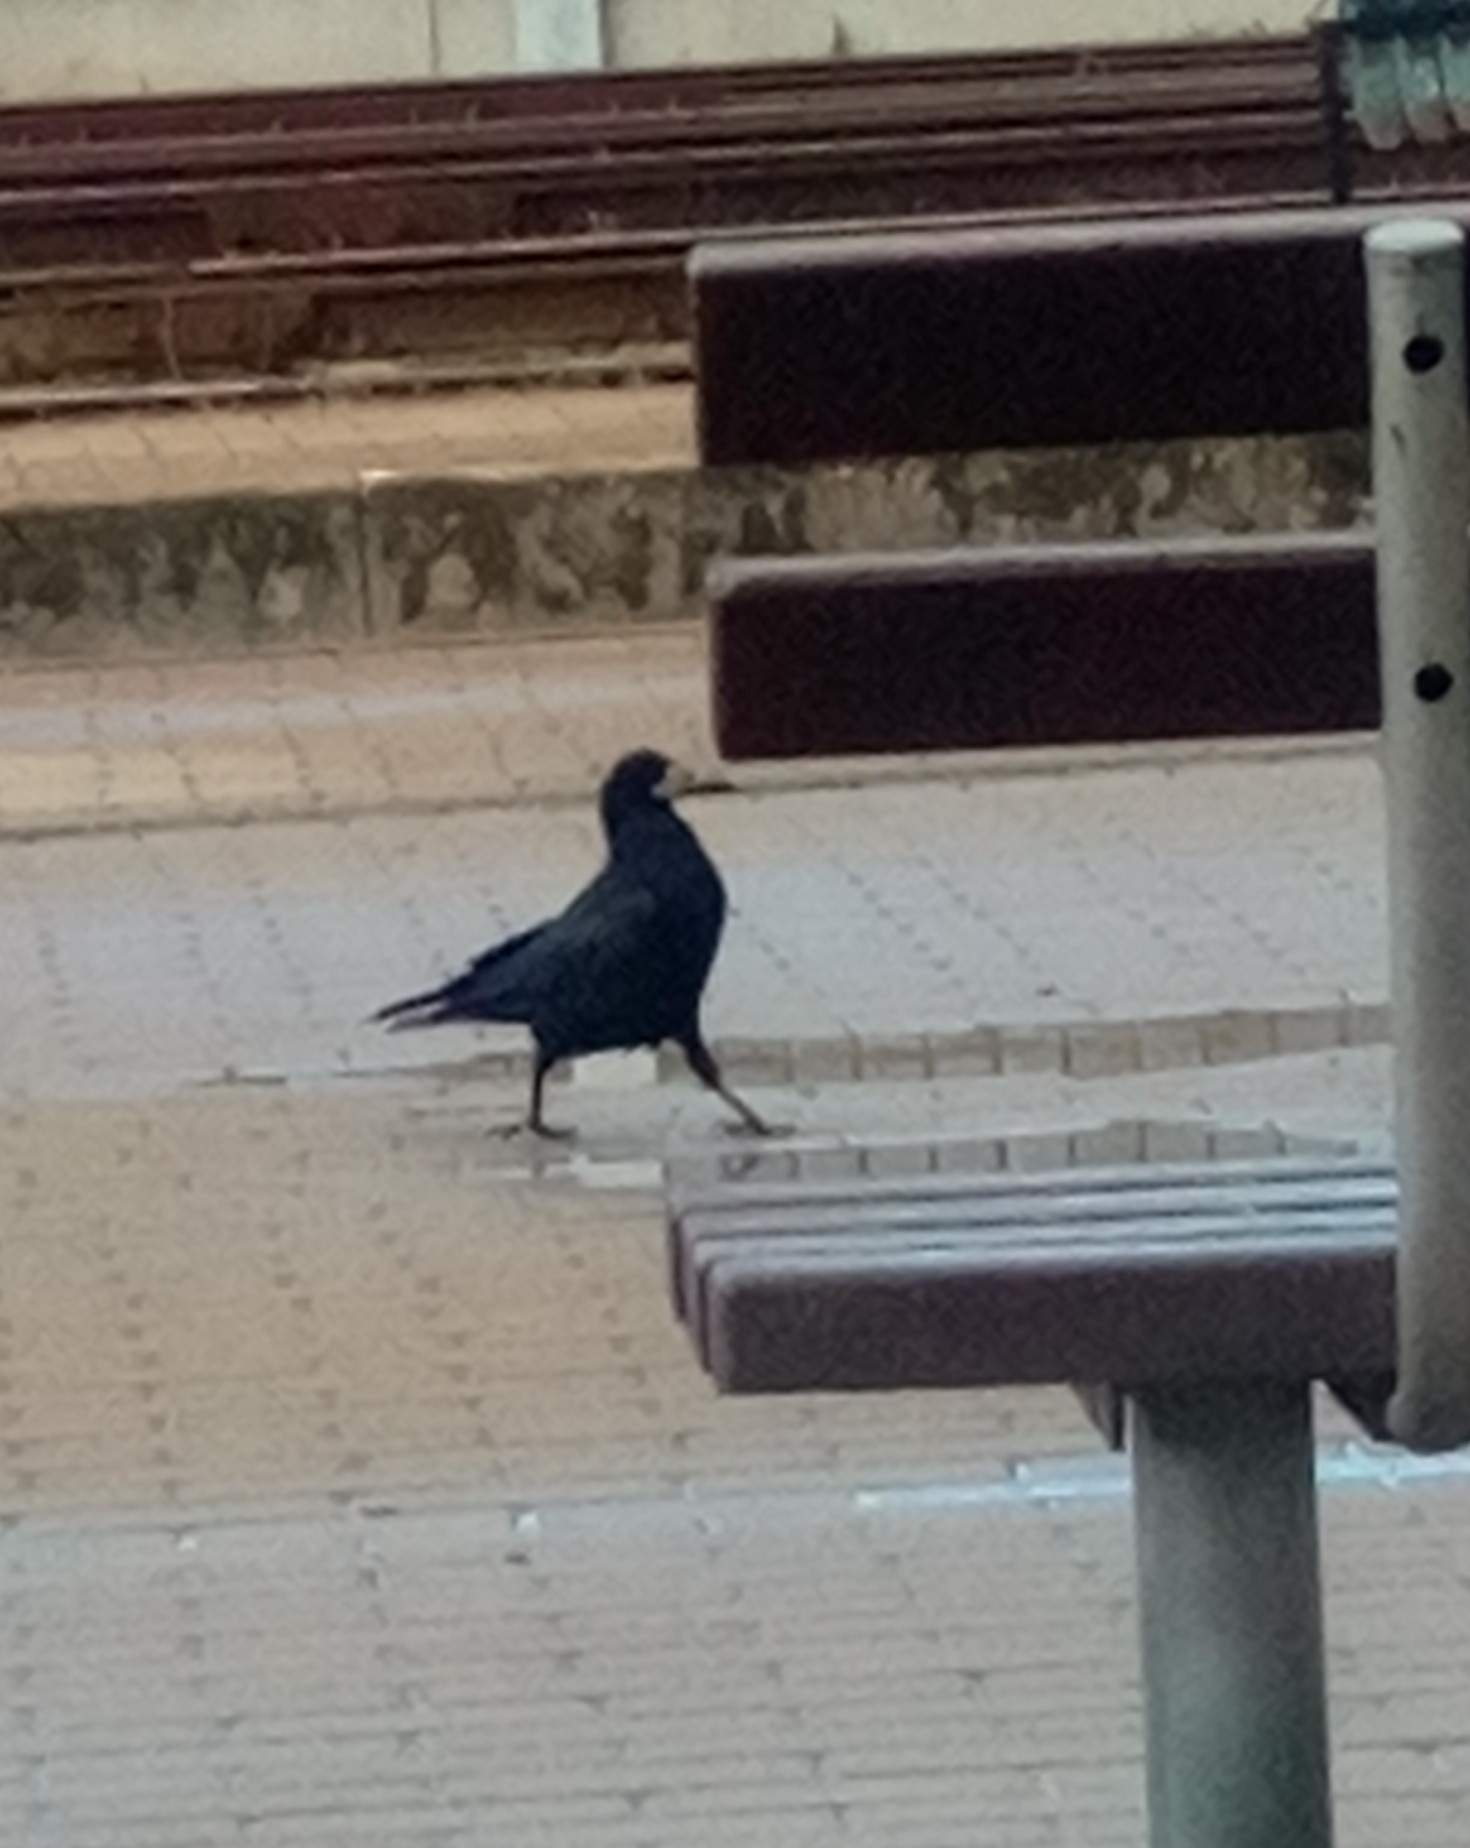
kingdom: Animalia
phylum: Chordata
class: Aves
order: Passeriformes
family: Corvidae
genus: Corvus
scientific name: Corvus frugilegus
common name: Rook
